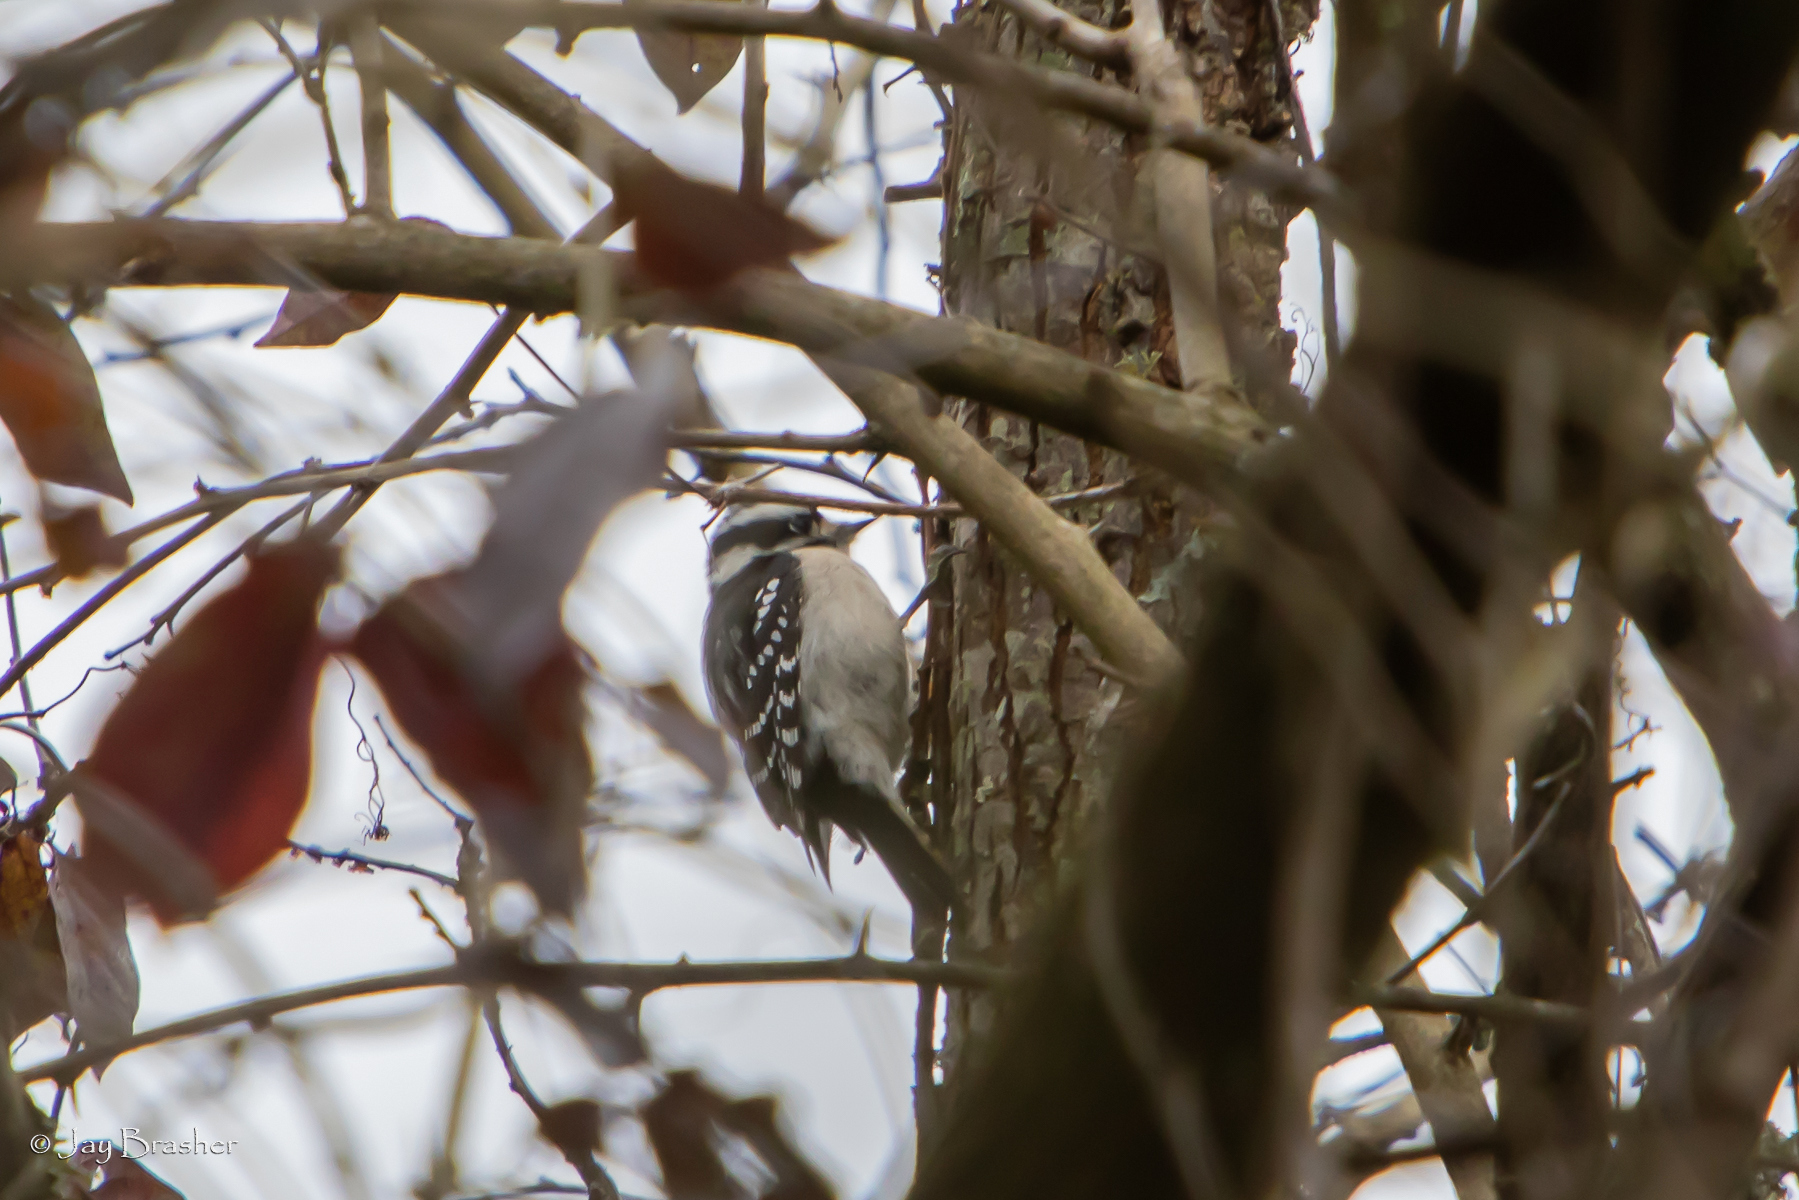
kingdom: Animalia
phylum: Chordata
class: Aves
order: Piciformes
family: Picidae
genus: Dryobates
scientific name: Dryobates pubescens
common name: Downy woodpecker
